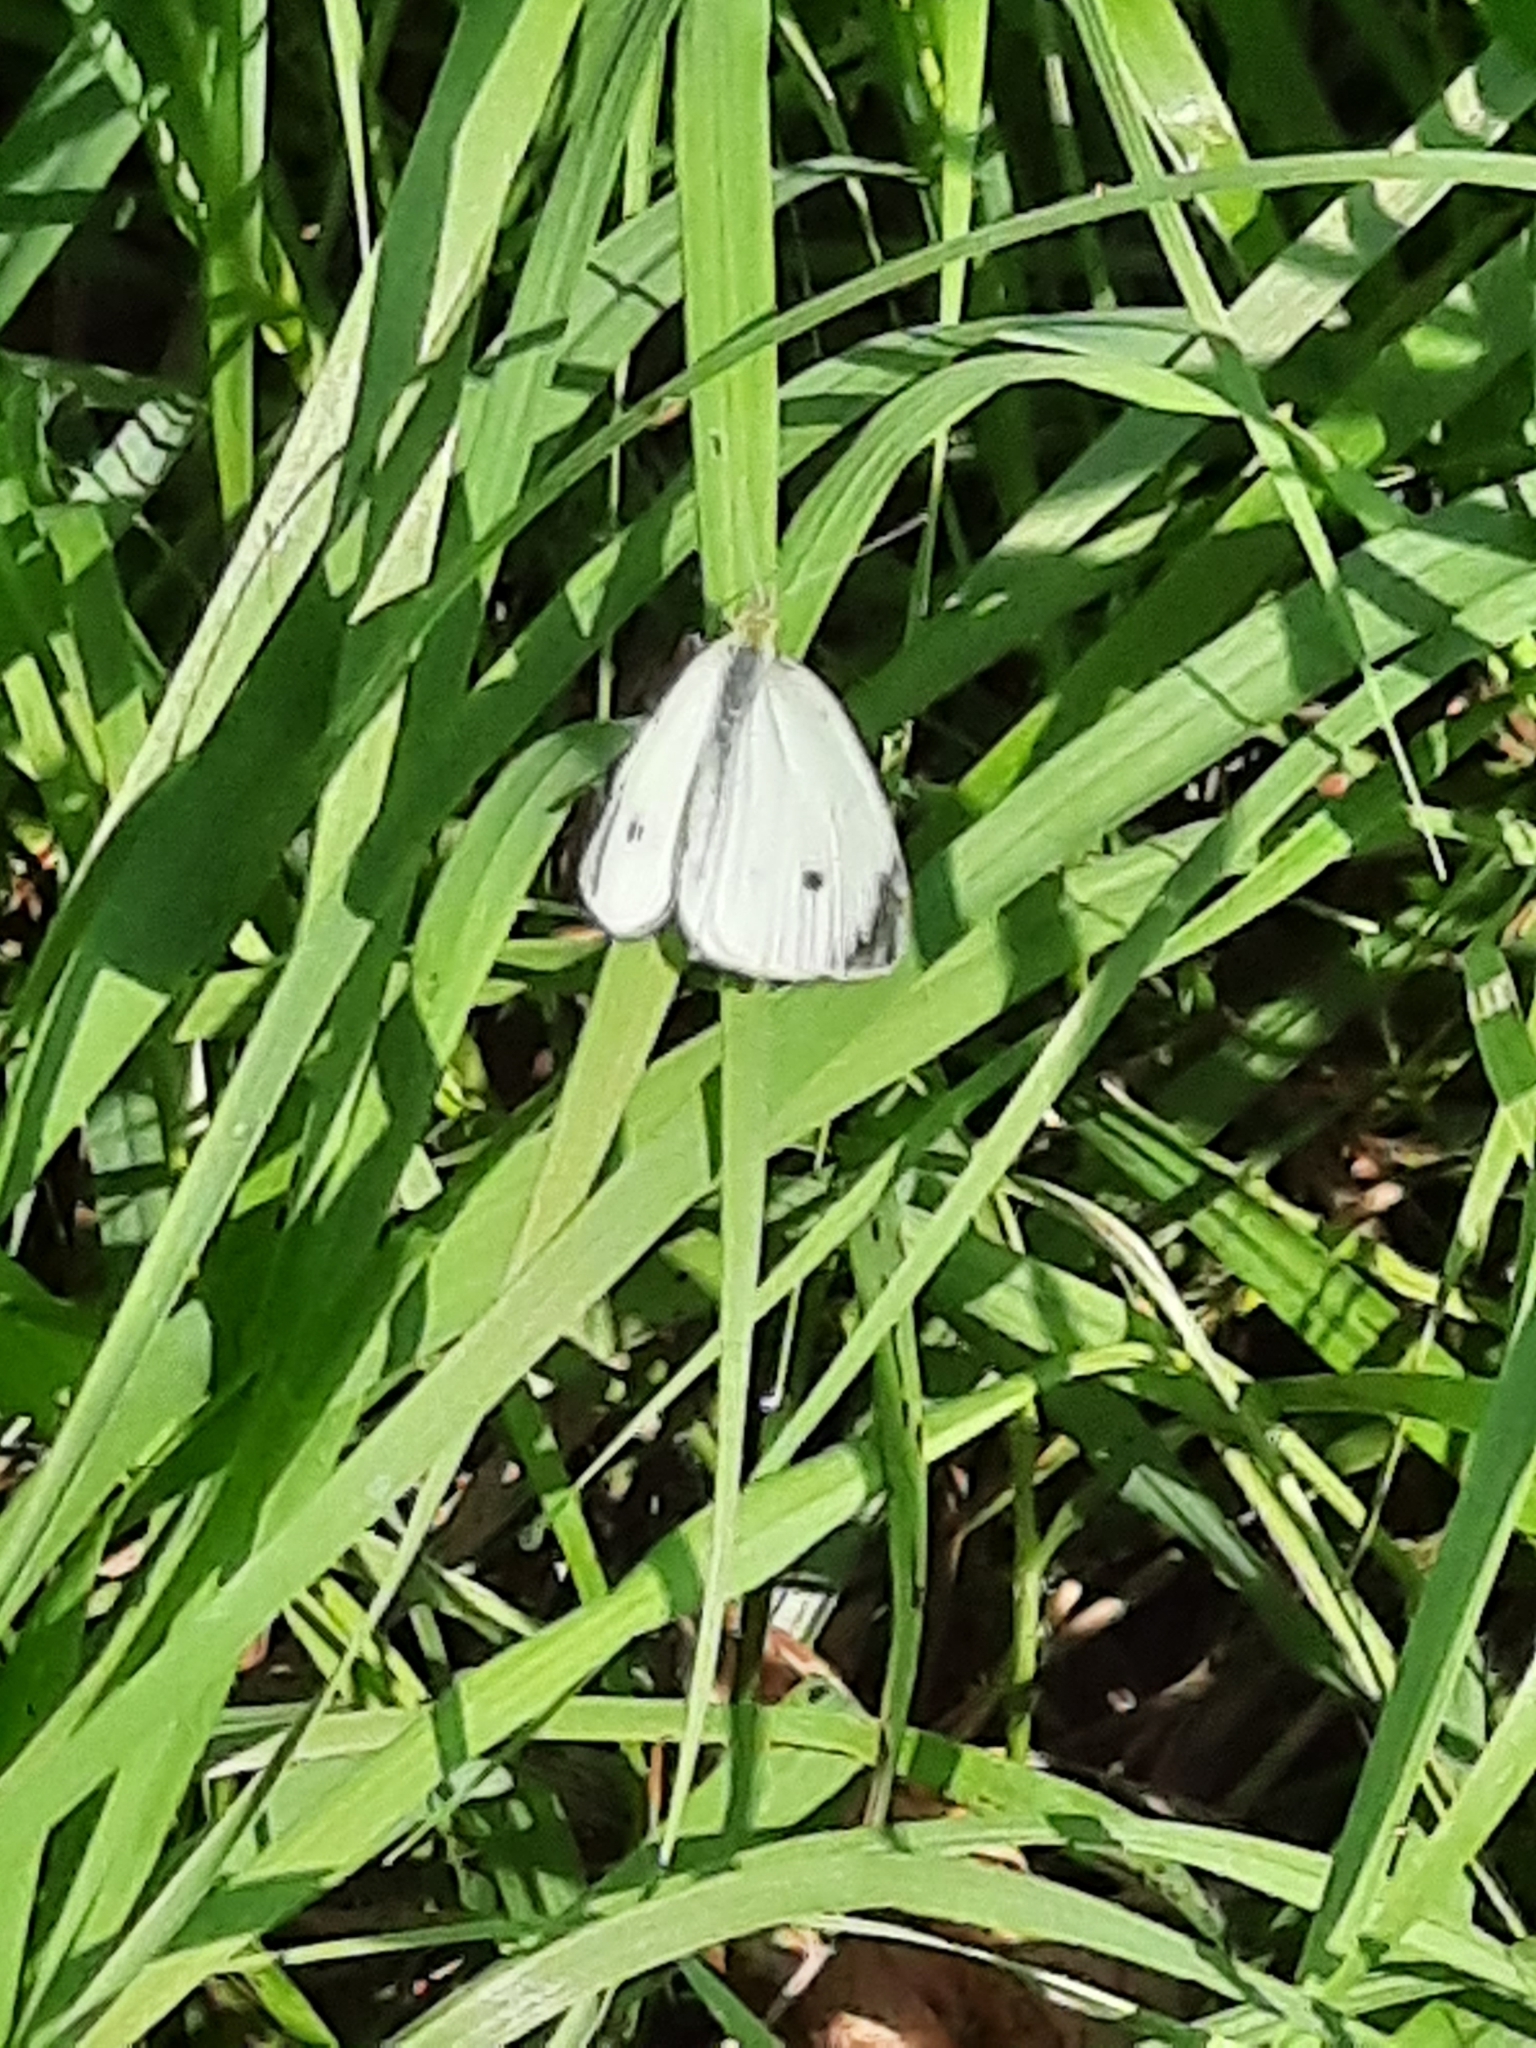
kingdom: Animalia
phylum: Arthropoda
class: Insecta
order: Lepidoptera
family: Pieridae
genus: Pieris
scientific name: Pieris rapae
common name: Small white
